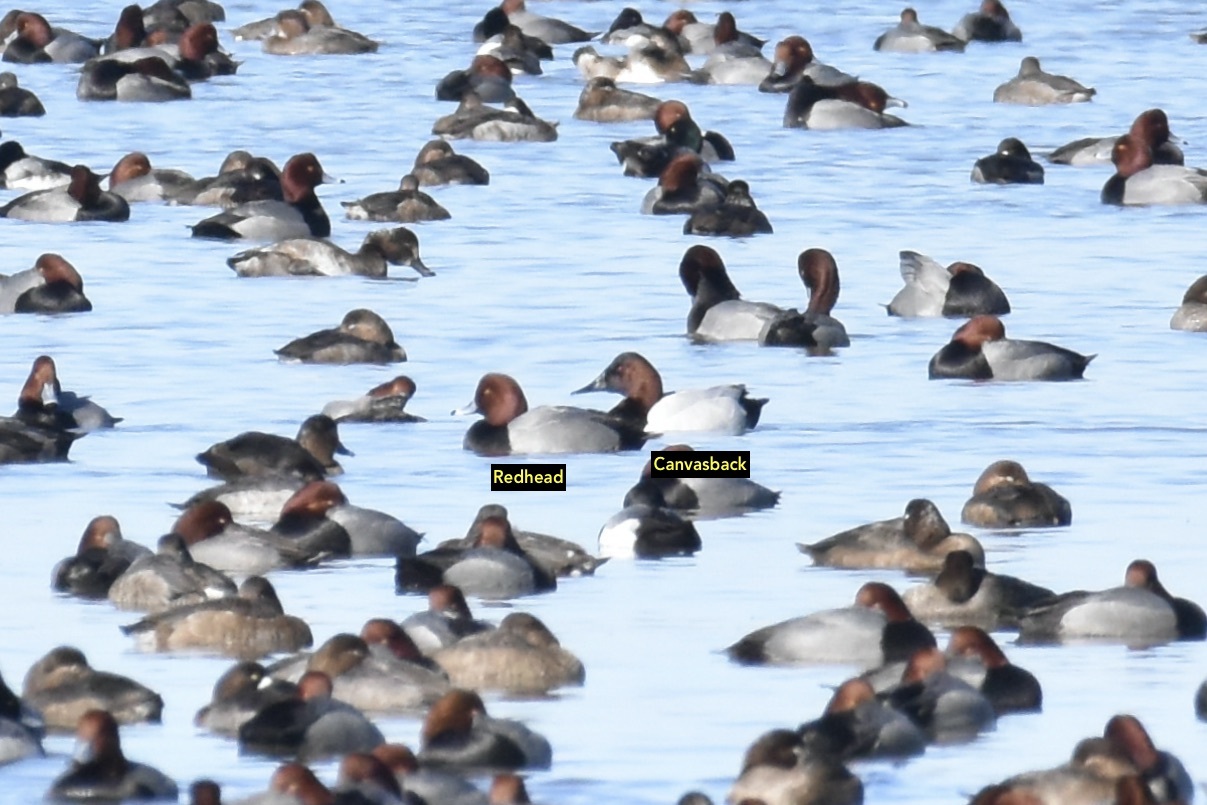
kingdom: Animalia
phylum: Chordata
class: Aves
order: Anseriformes
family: Anatidae
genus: Aythya
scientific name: Aythya valisineria
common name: Canvasback
